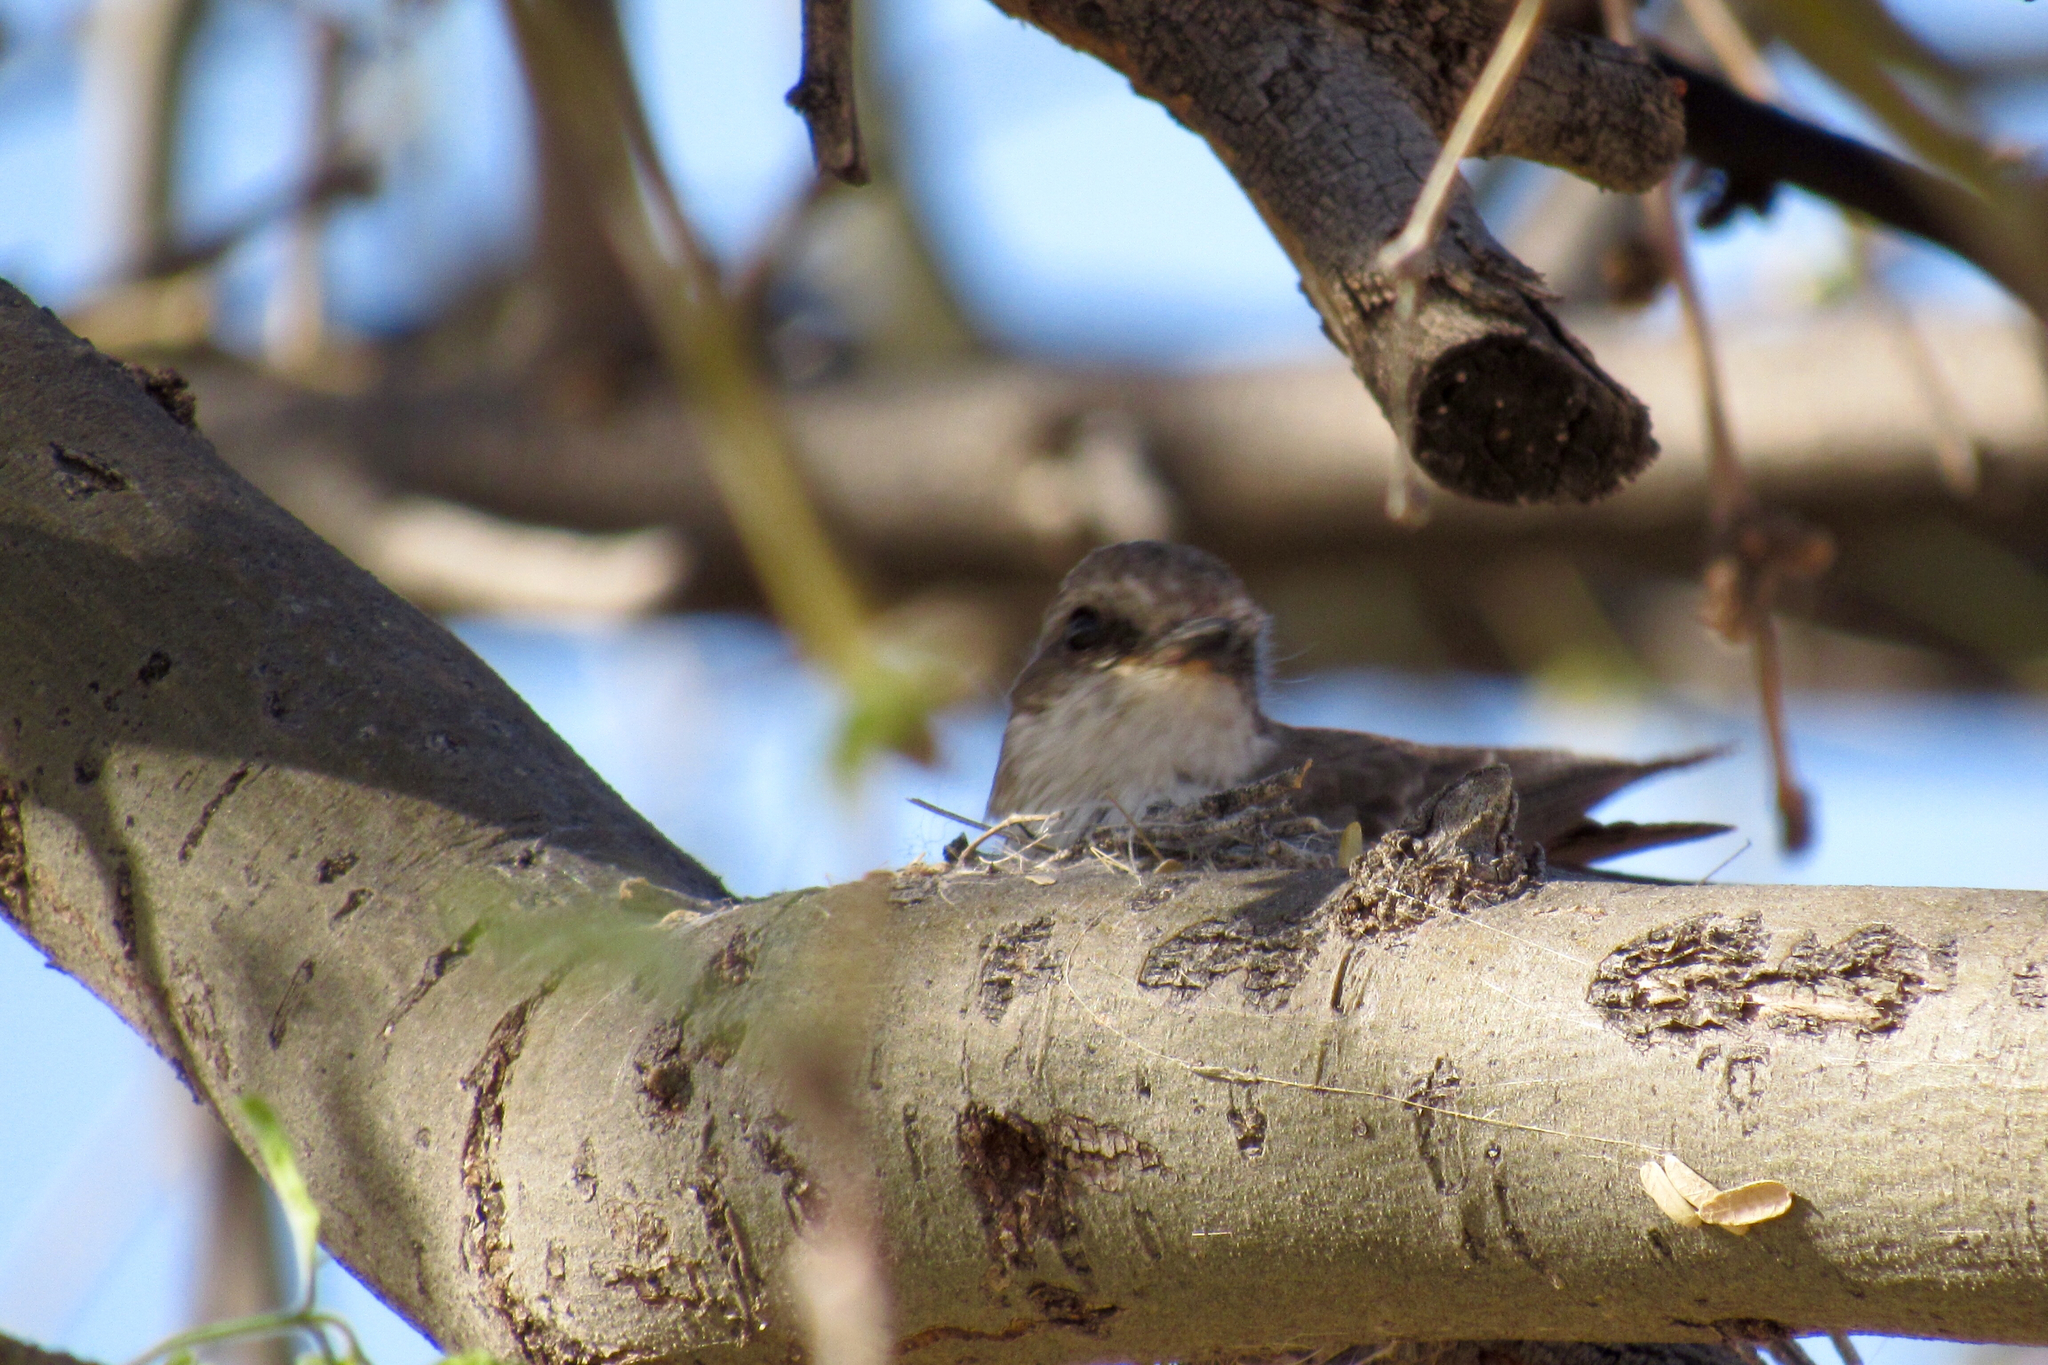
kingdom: Animalia
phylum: Chordata
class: Aves
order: Passeriformes
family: Tyrannidae
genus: Pyrocephalus
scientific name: Pyrocephalus rubinus
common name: Vermilion flycatcher
